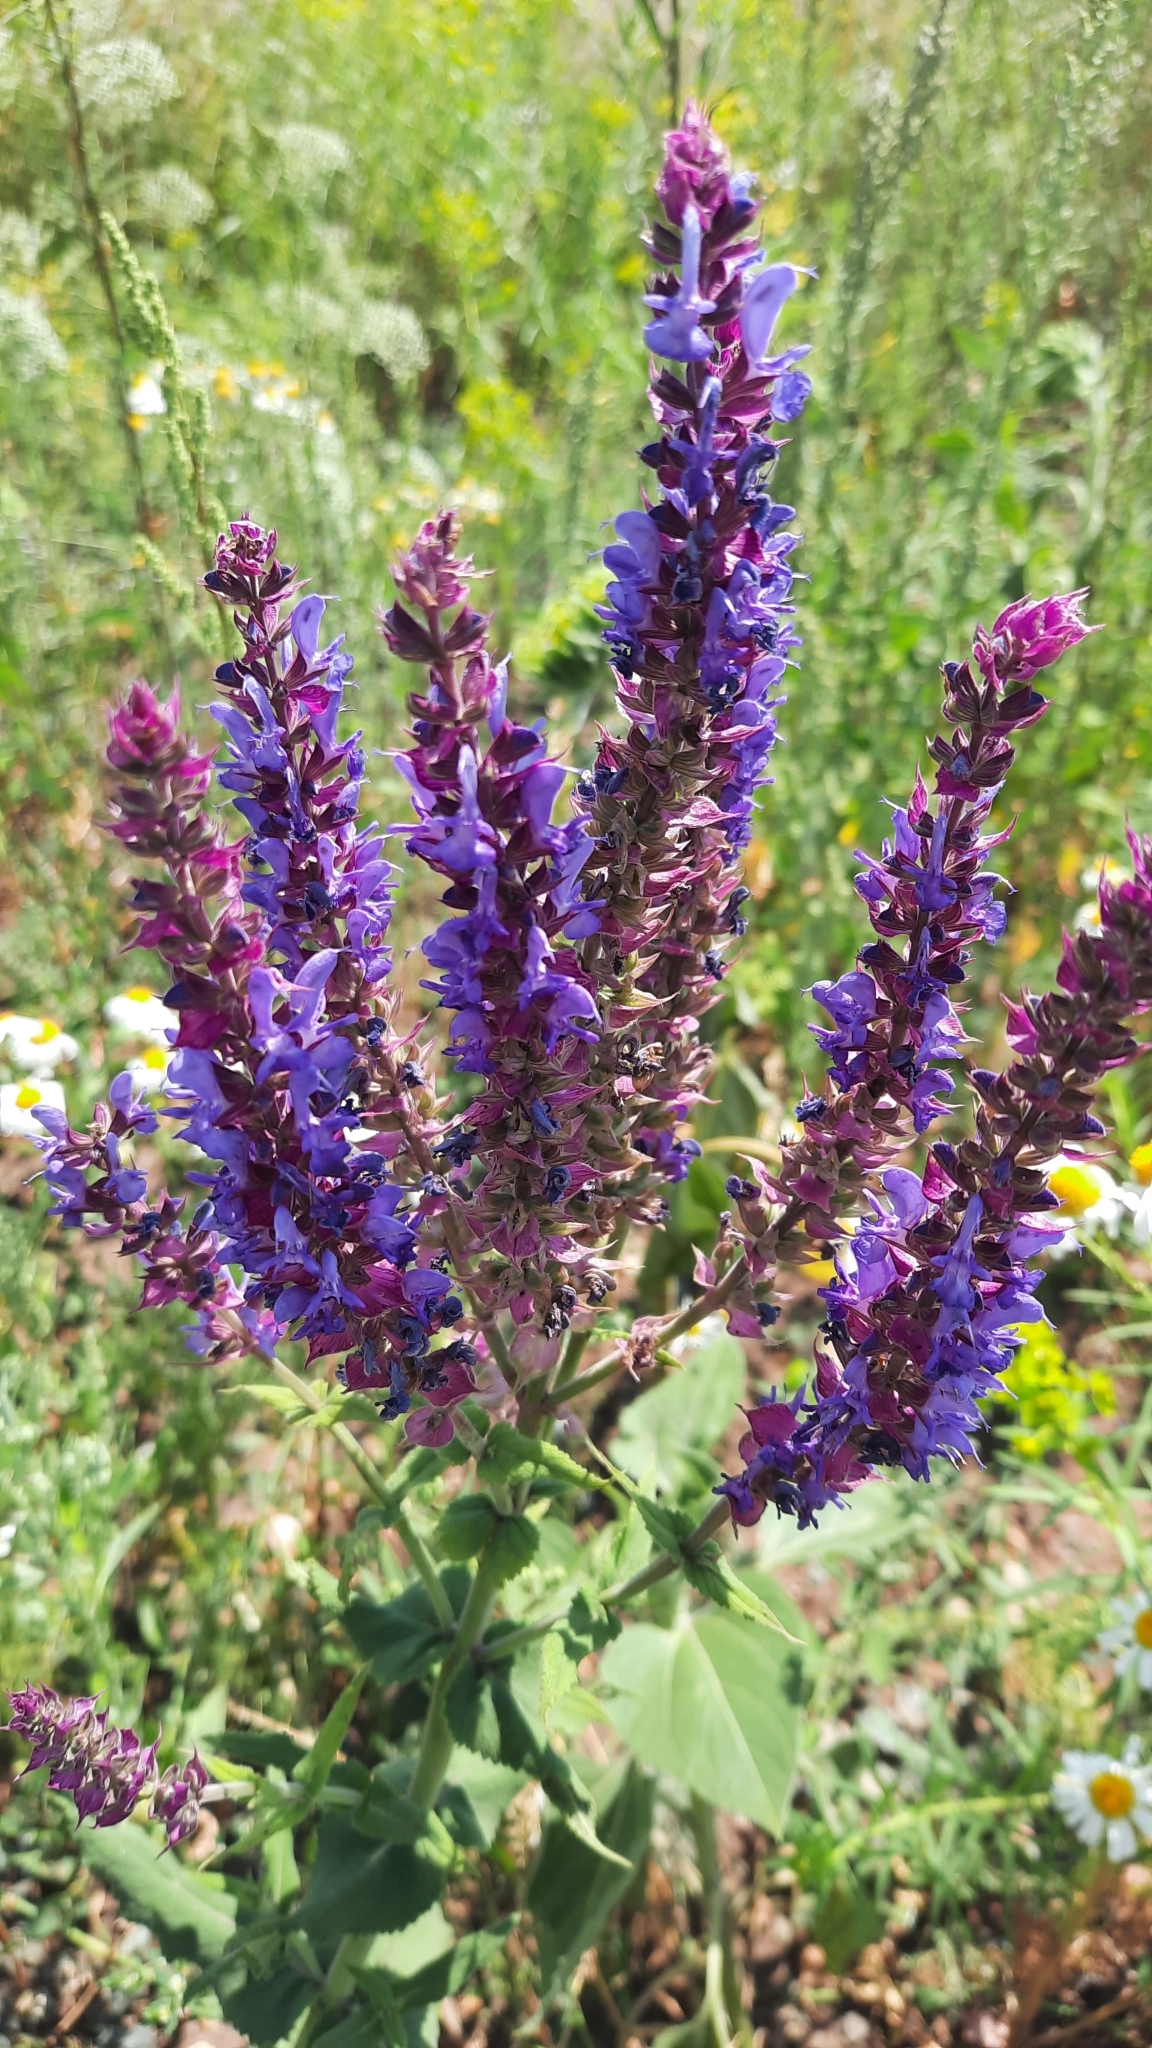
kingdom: Plantae
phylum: Tracheophyta
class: Magnoliopsida
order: Lamiales
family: Lamiaceae
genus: Salvia
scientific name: Salvia nemorosa
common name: Balkan clary
